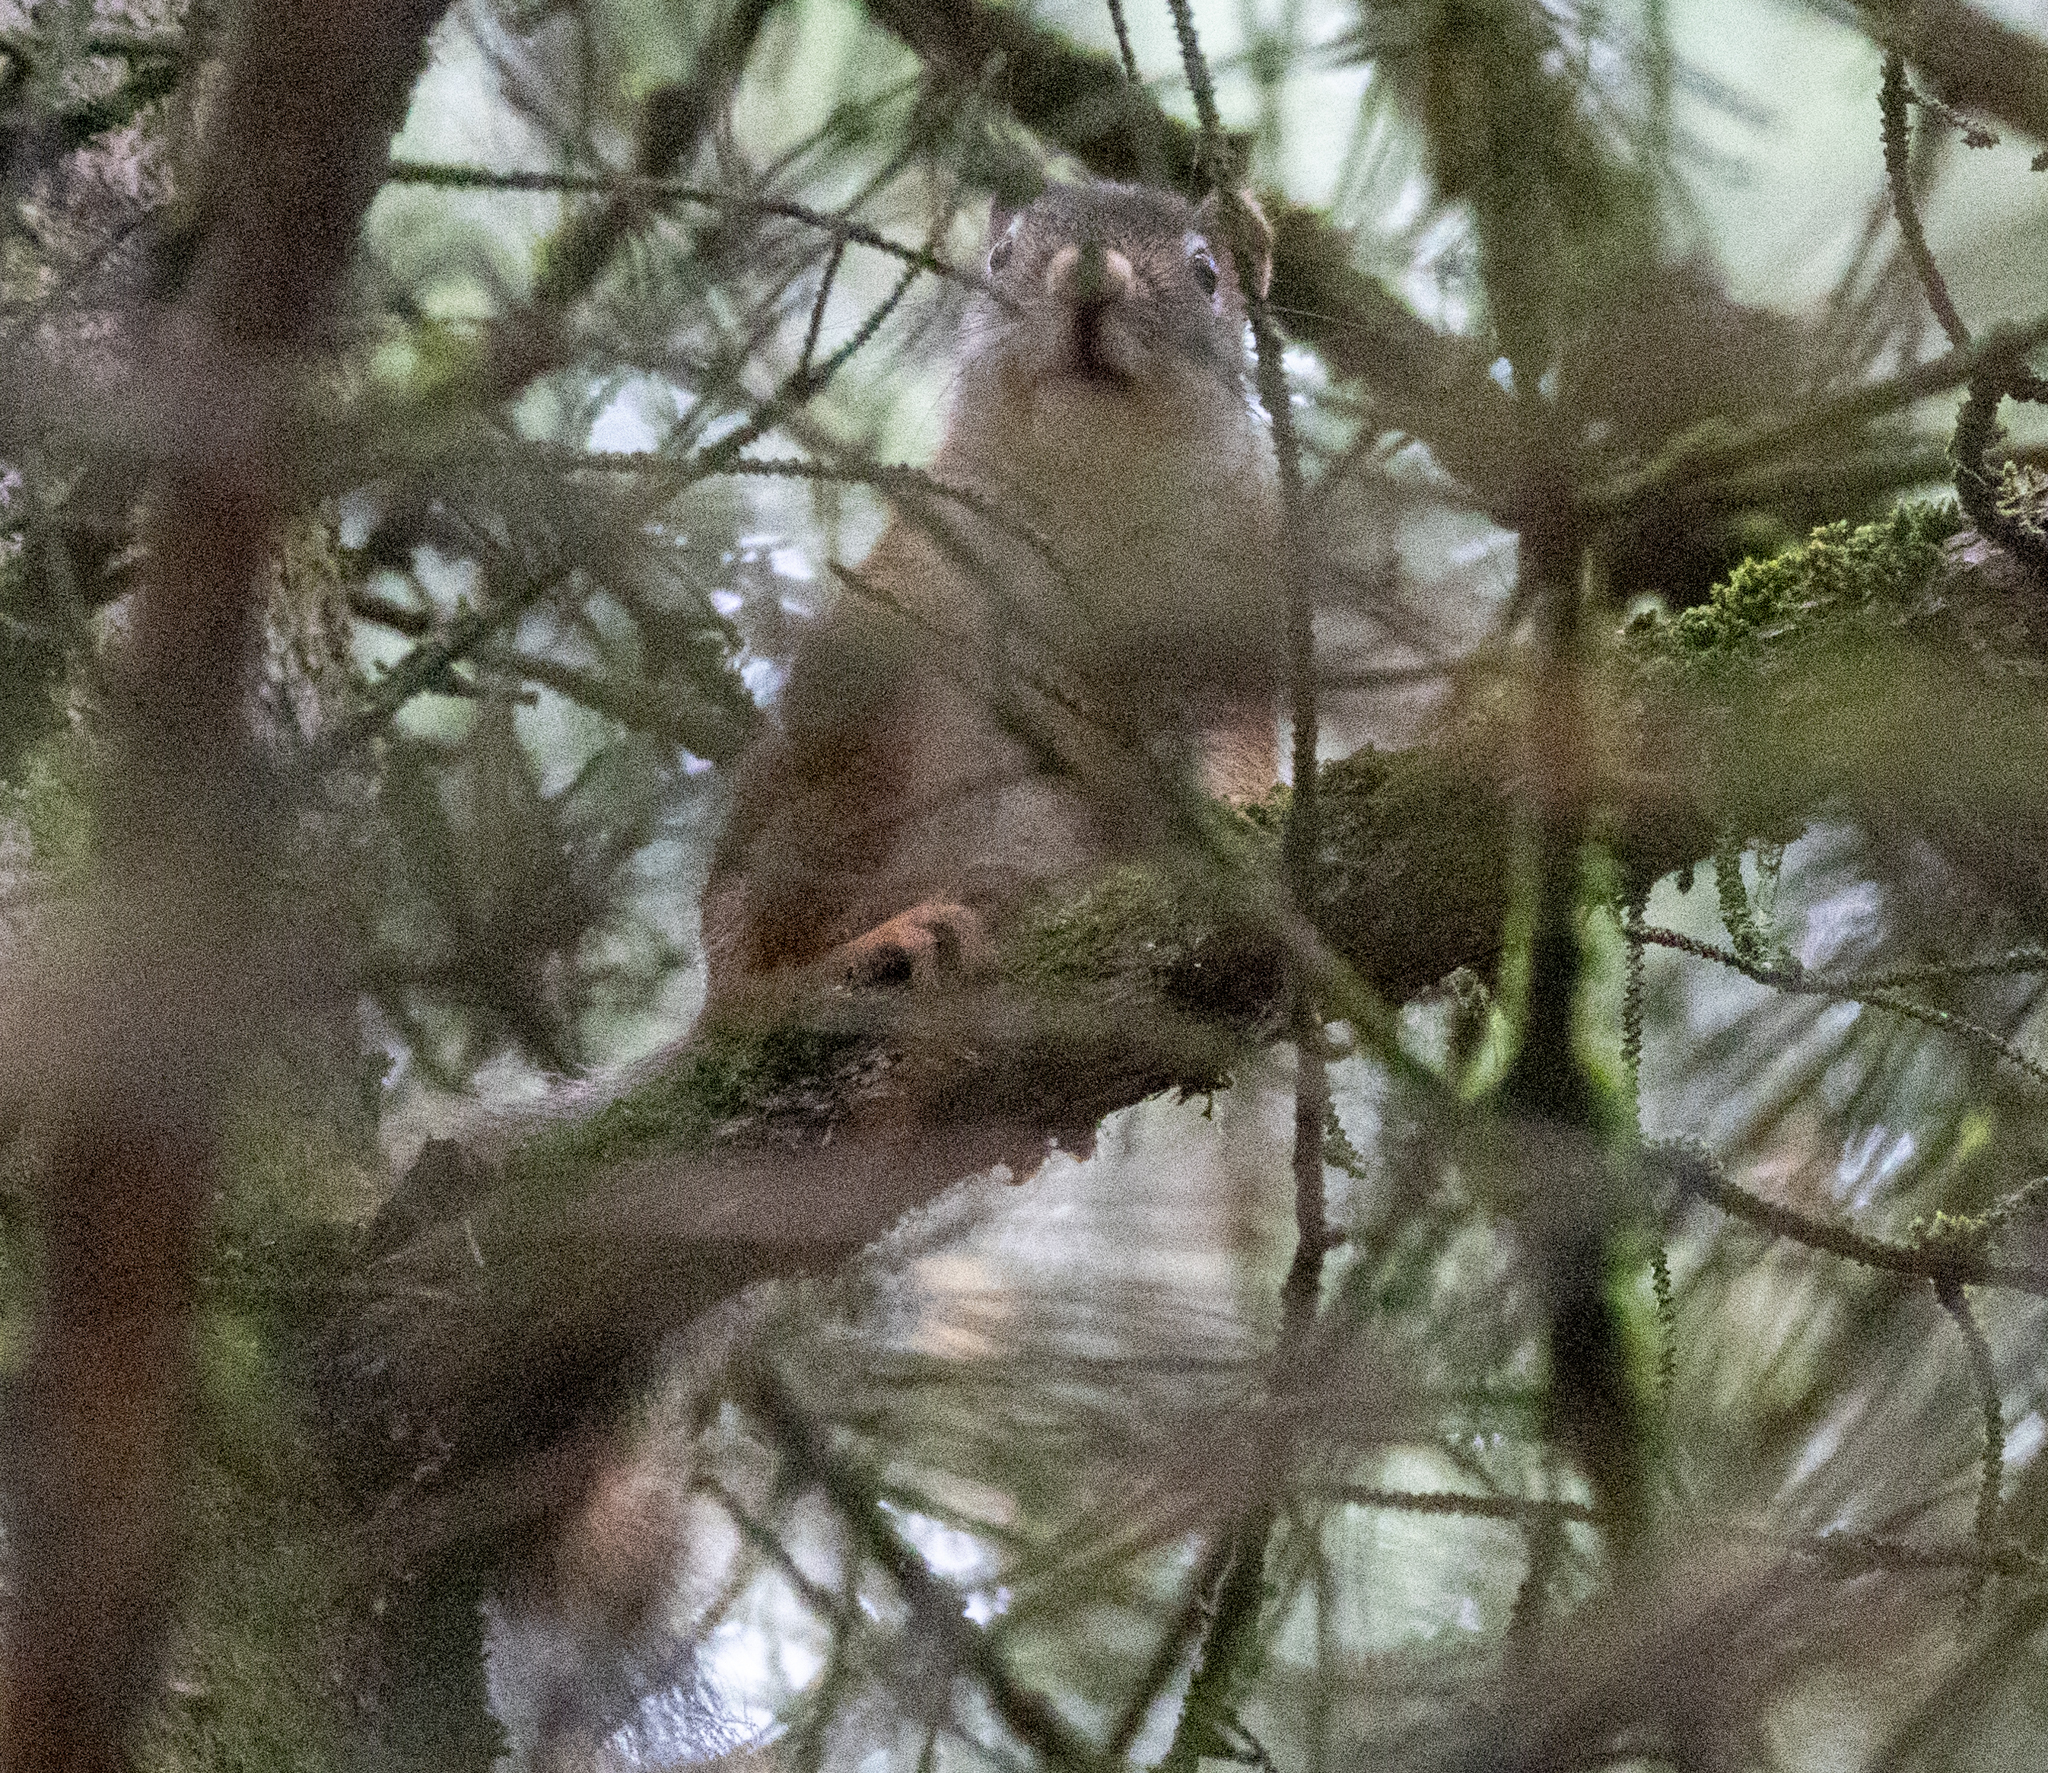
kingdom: Animalia
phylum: Chordata
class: Mammalia
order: Rodentia
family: Sciuridae
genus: Tamiasciurus
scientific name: Tamiasciurus hudsonicus
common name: Red squirrel
